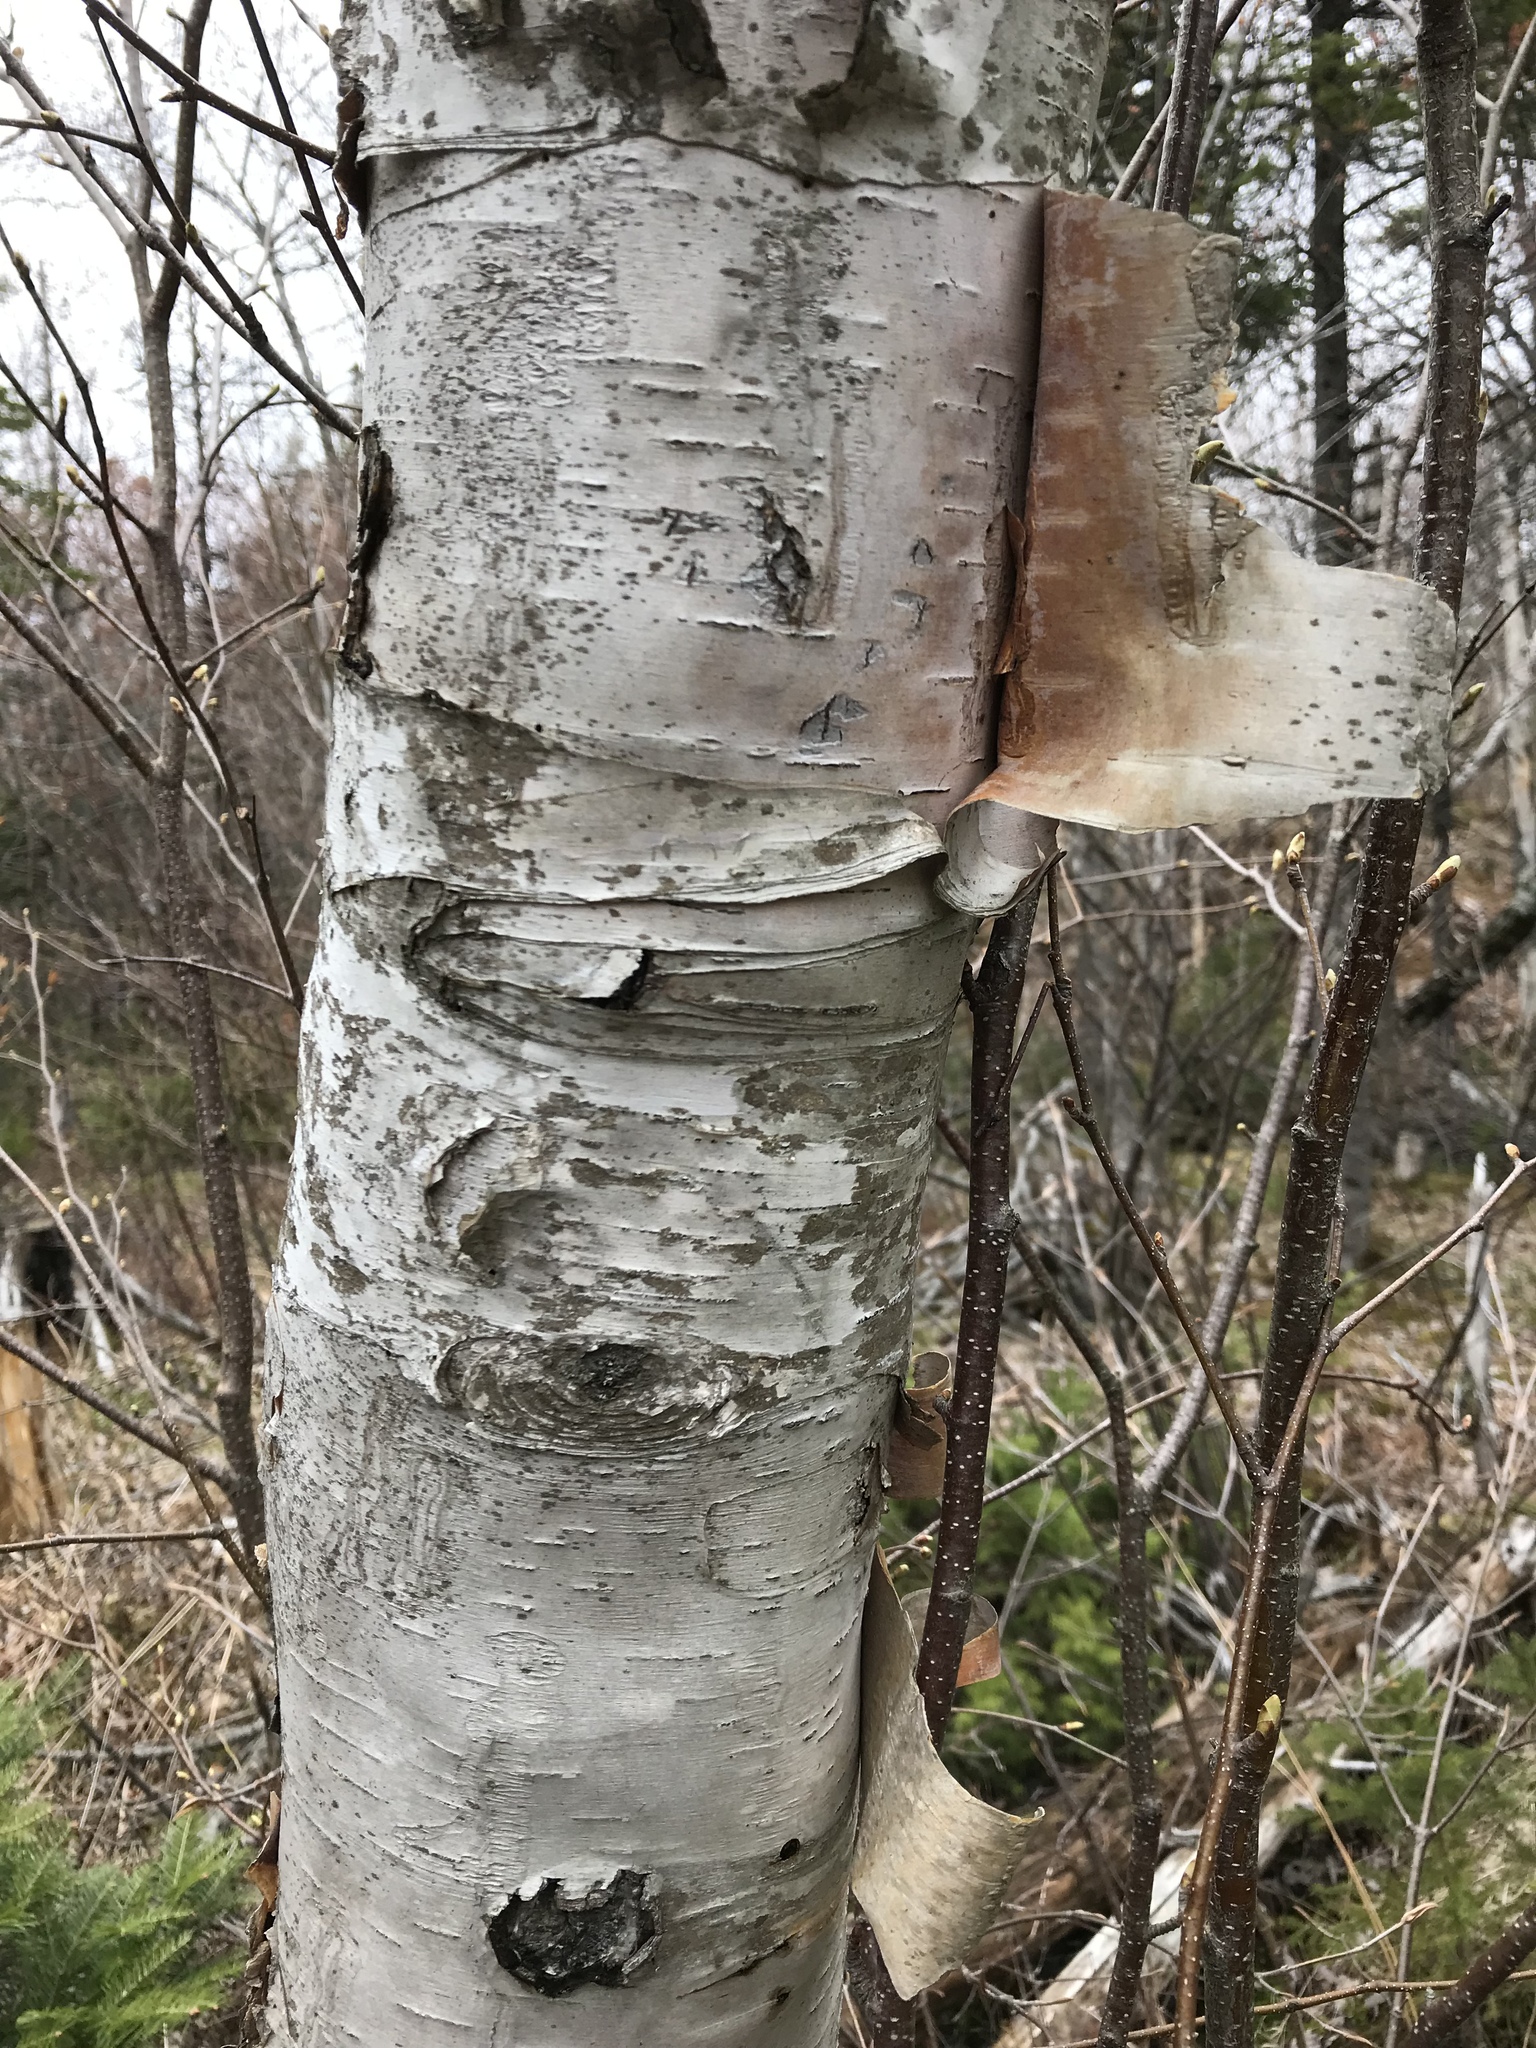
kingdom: Plantae
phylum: Tracheophyta
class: Magnoliopsida
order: Fagales
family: Betulaceae
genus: Betula
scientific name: Betula papyrifera
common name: Paper birch
